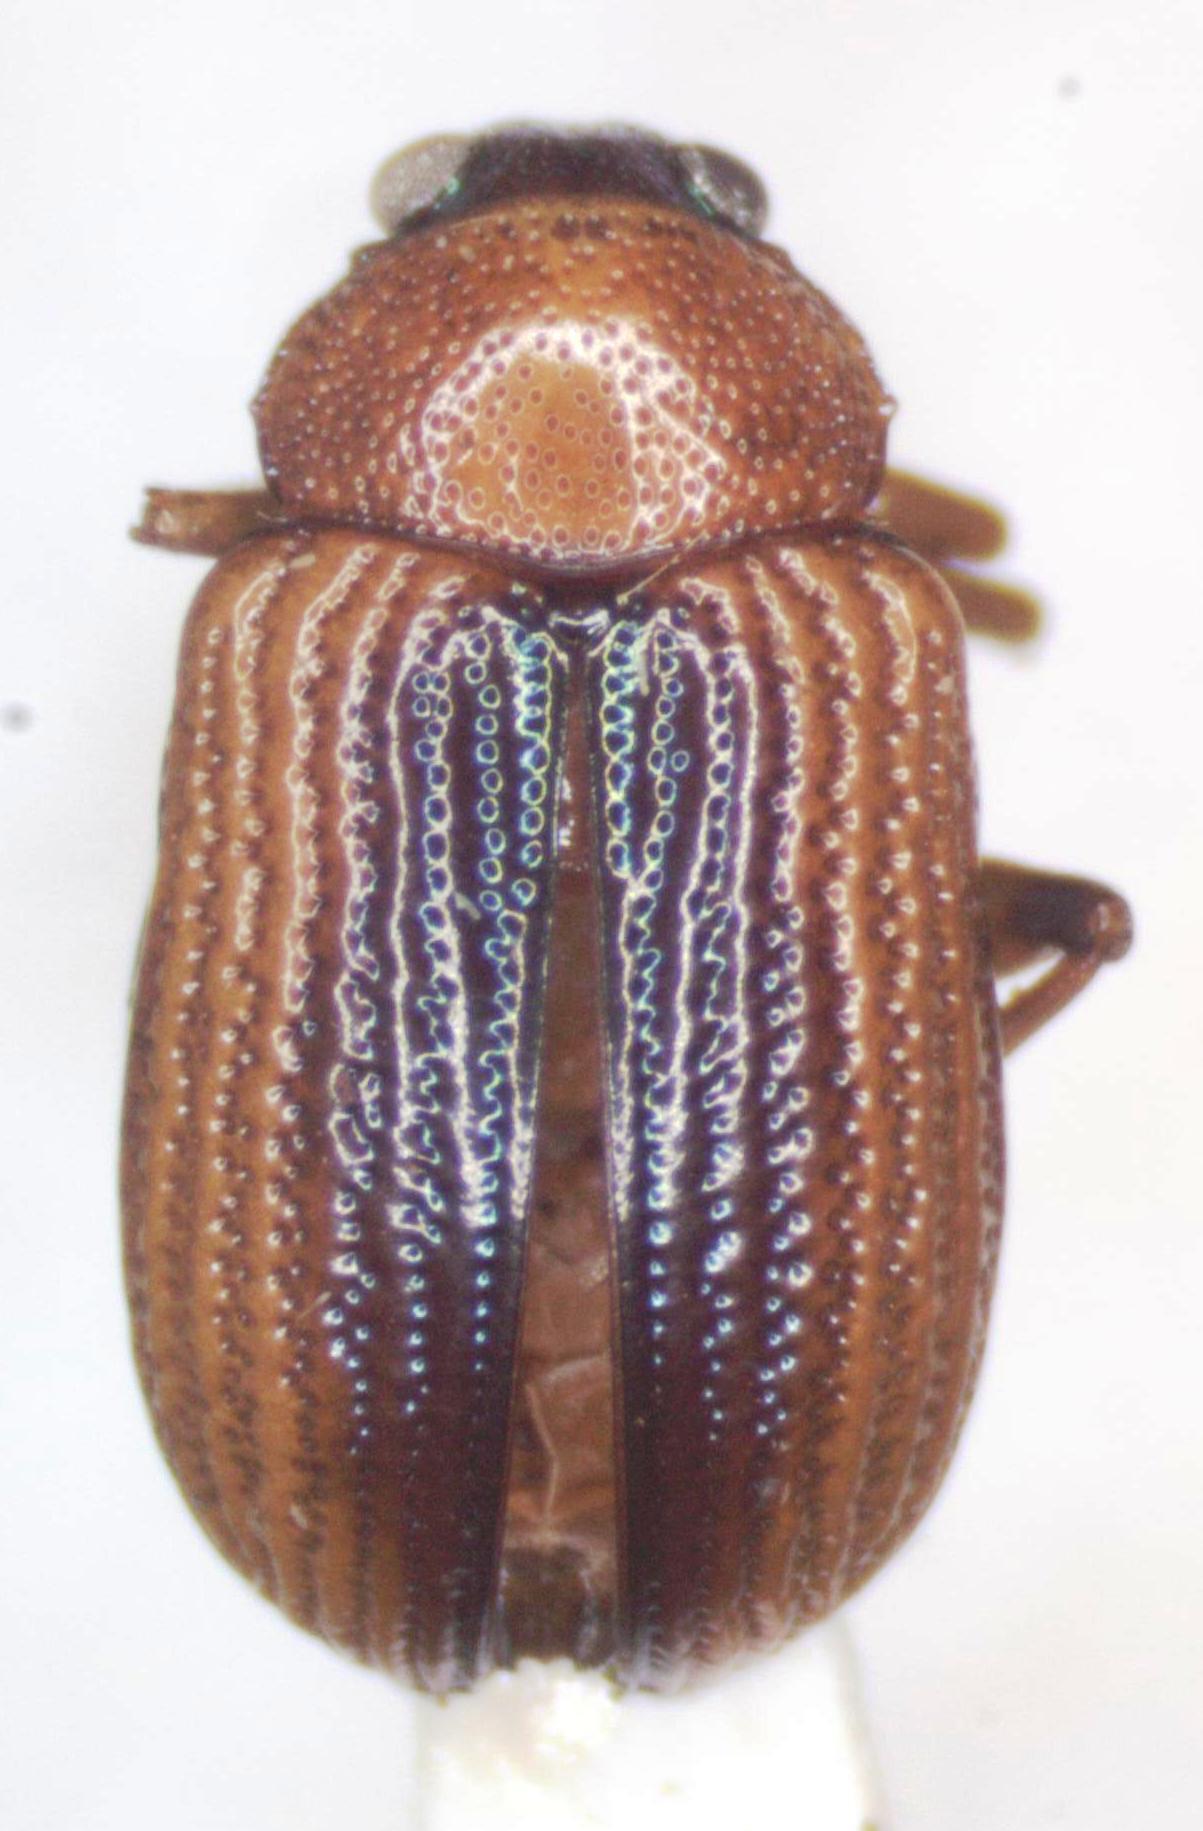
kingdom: Animalia
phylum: Arthropoda
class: Insecta
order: Coleoptera
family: Chrysomelidae
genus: Deuteronoda
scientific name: Deuteronoda
